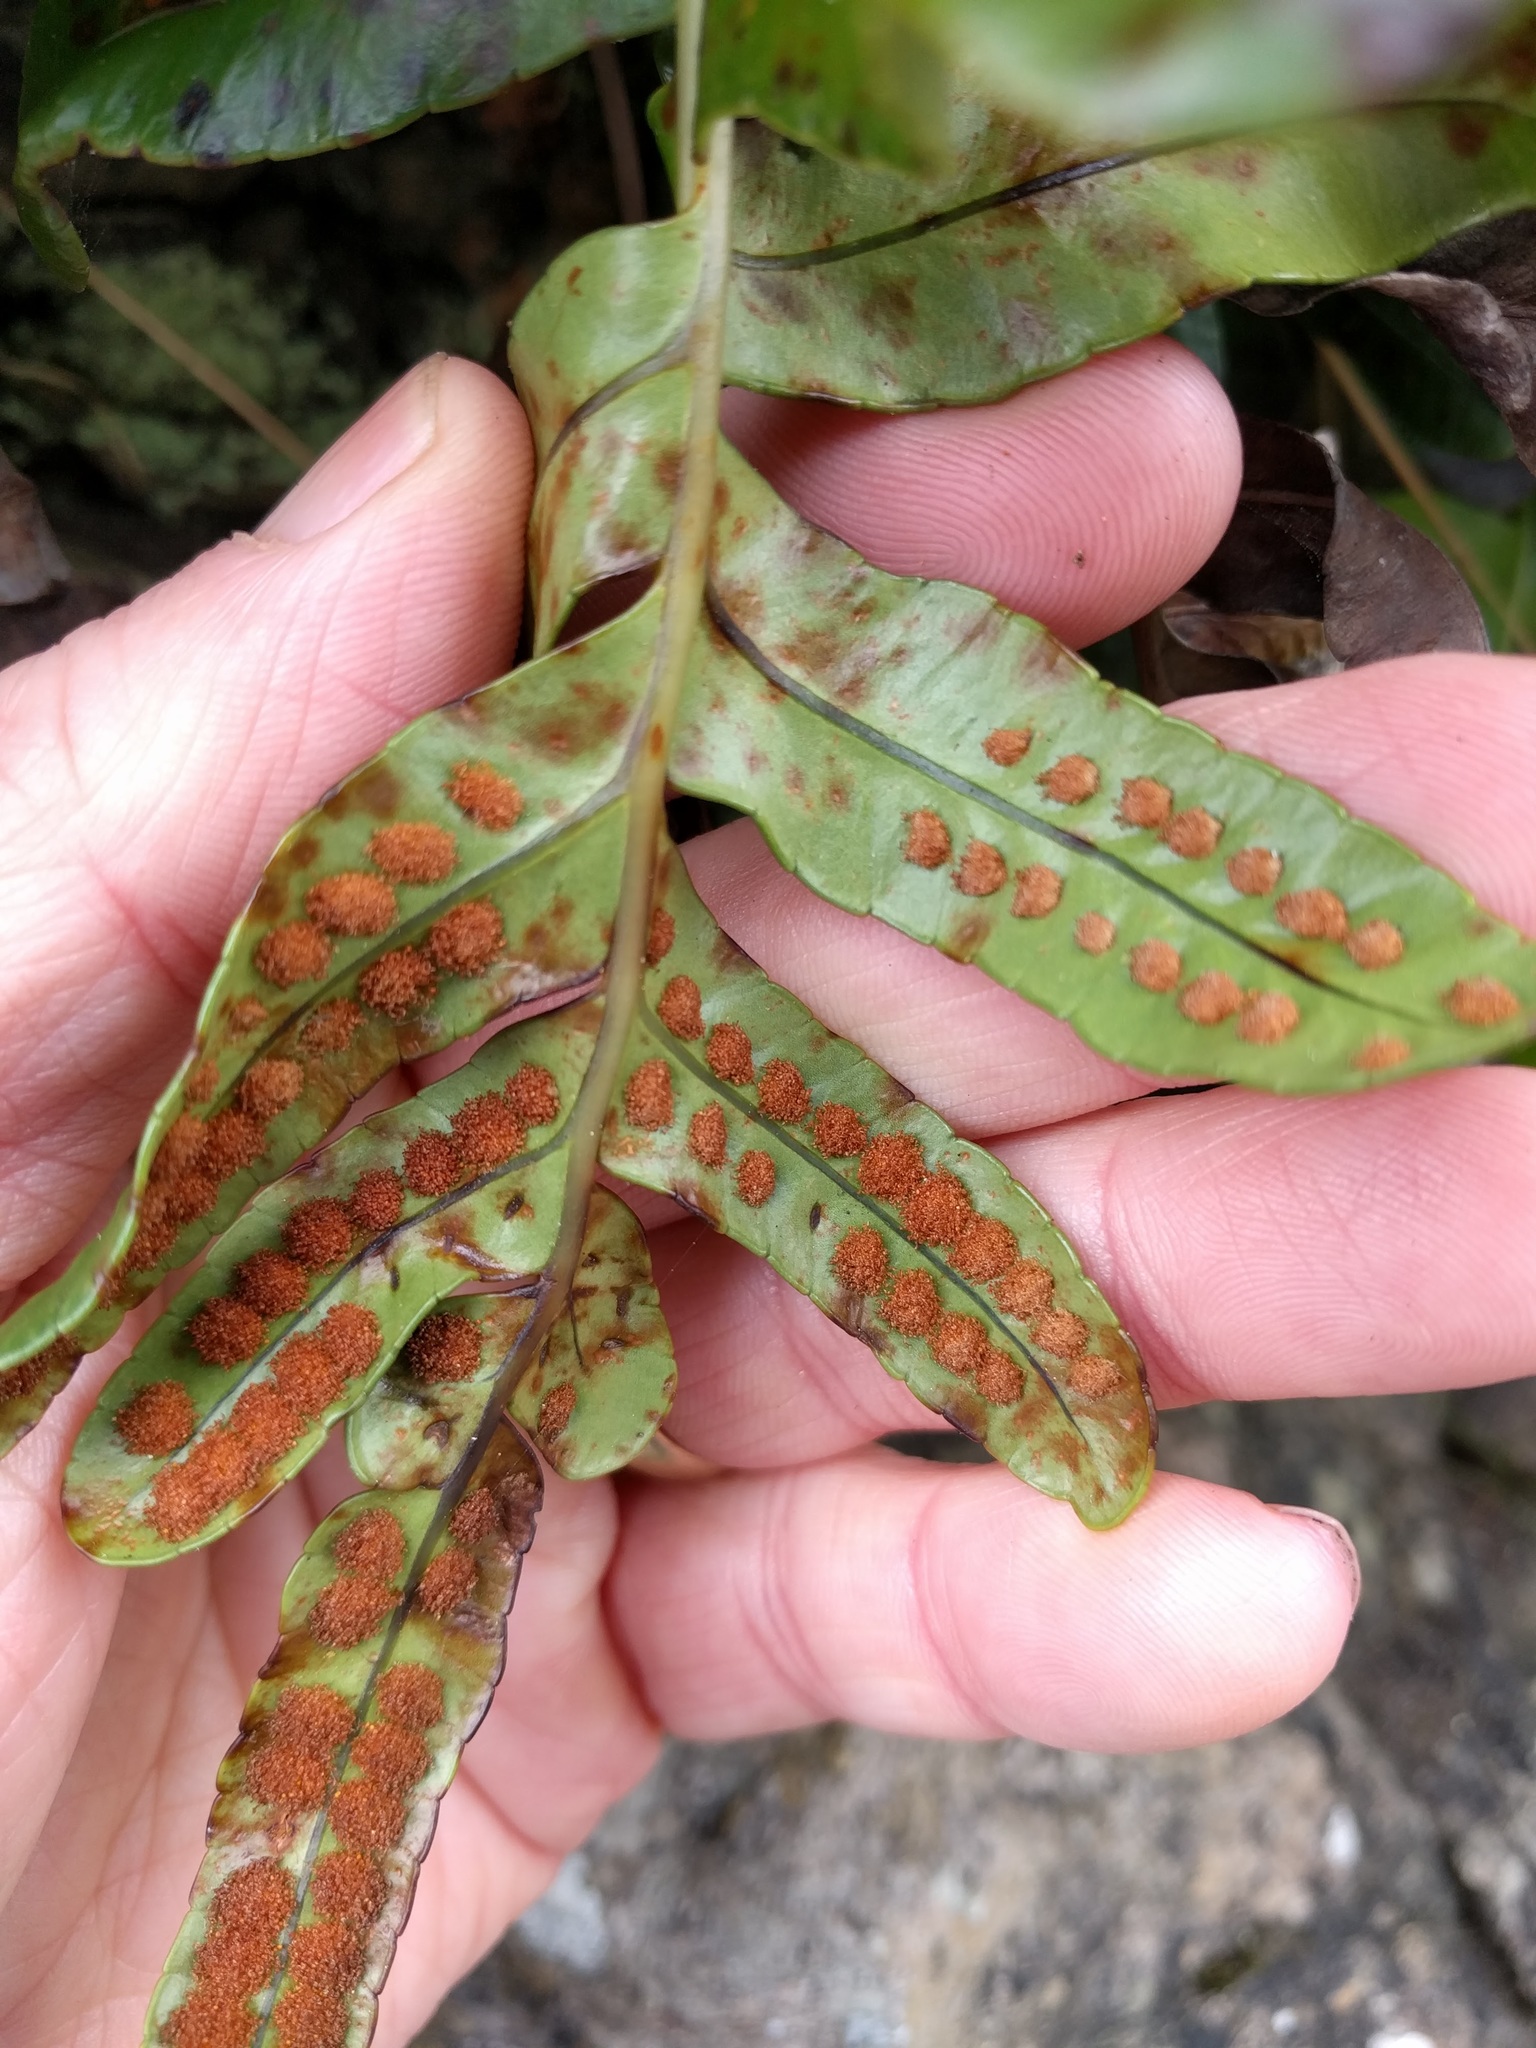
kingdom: Plantae
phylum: Tracheophyta
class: Polypodiopsida
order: Polypodiales
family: Polypodiaceae
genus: Polypodium
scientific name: Polypodium scouleri
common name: Scouler's polypody
